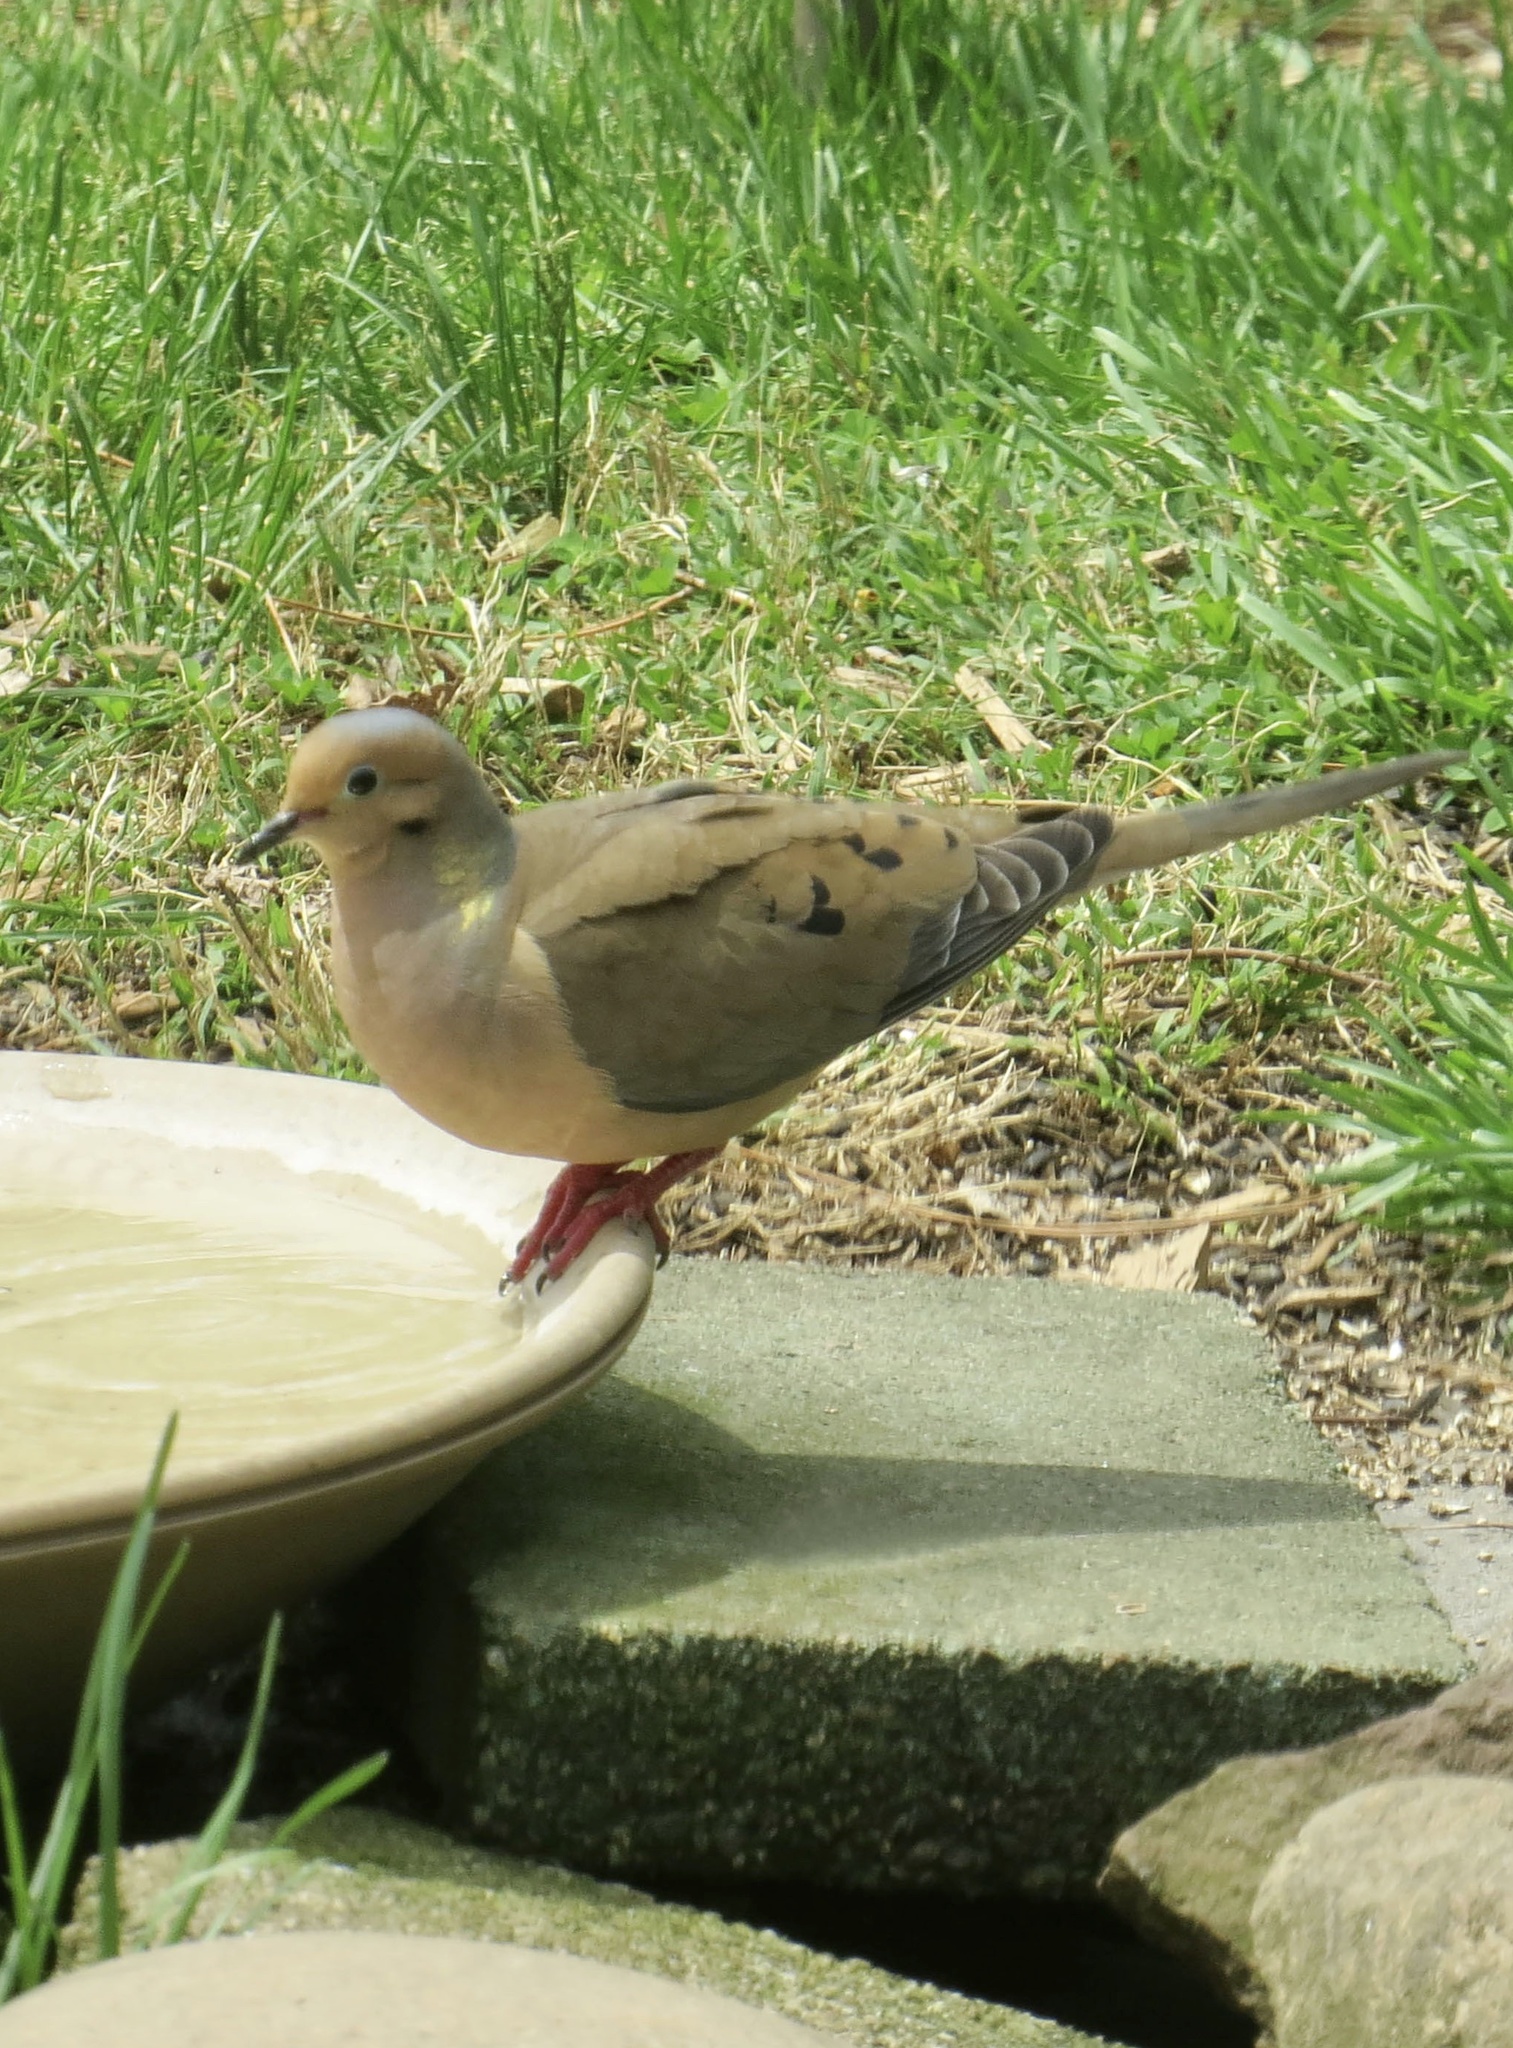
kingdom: Animalia
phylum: Chordata
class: Aves
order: Columbiformes
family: Columbidae
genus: Zenaida
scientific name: Zenaida macroura
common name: Mourning dove
